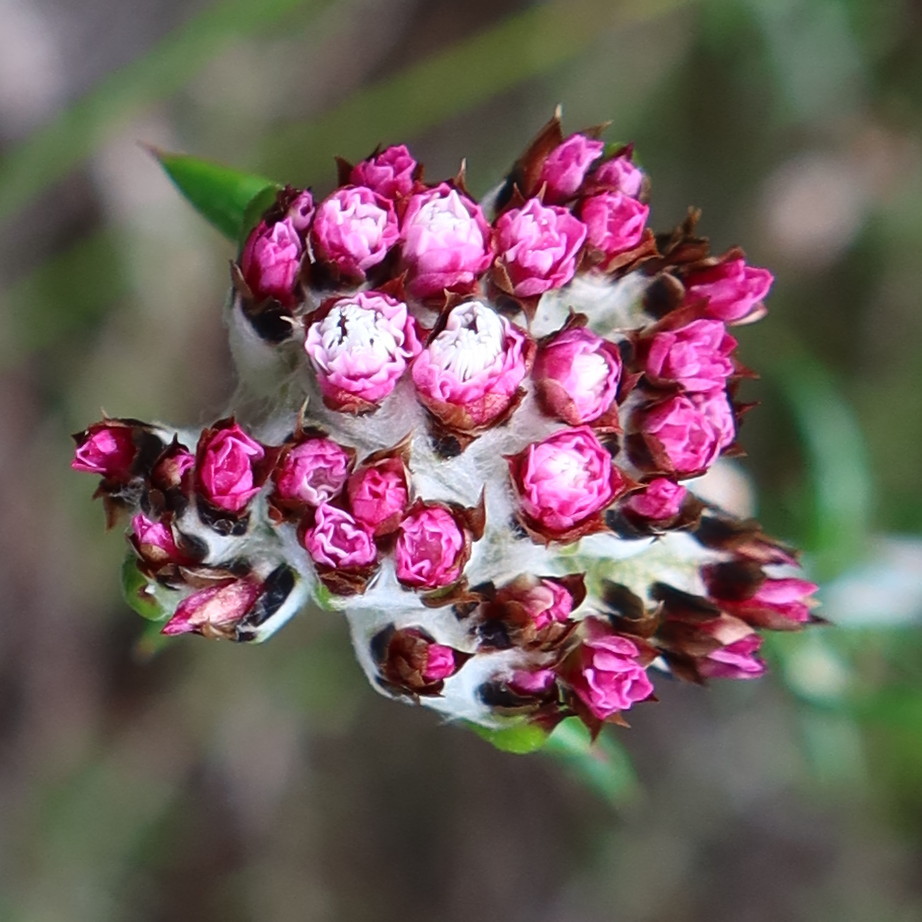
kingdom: Plantae
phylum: Tracheophyta
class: Magnoliopsida
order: Asterales
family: Asteraceae
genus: Metalasia
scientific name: Metalasia divergens
